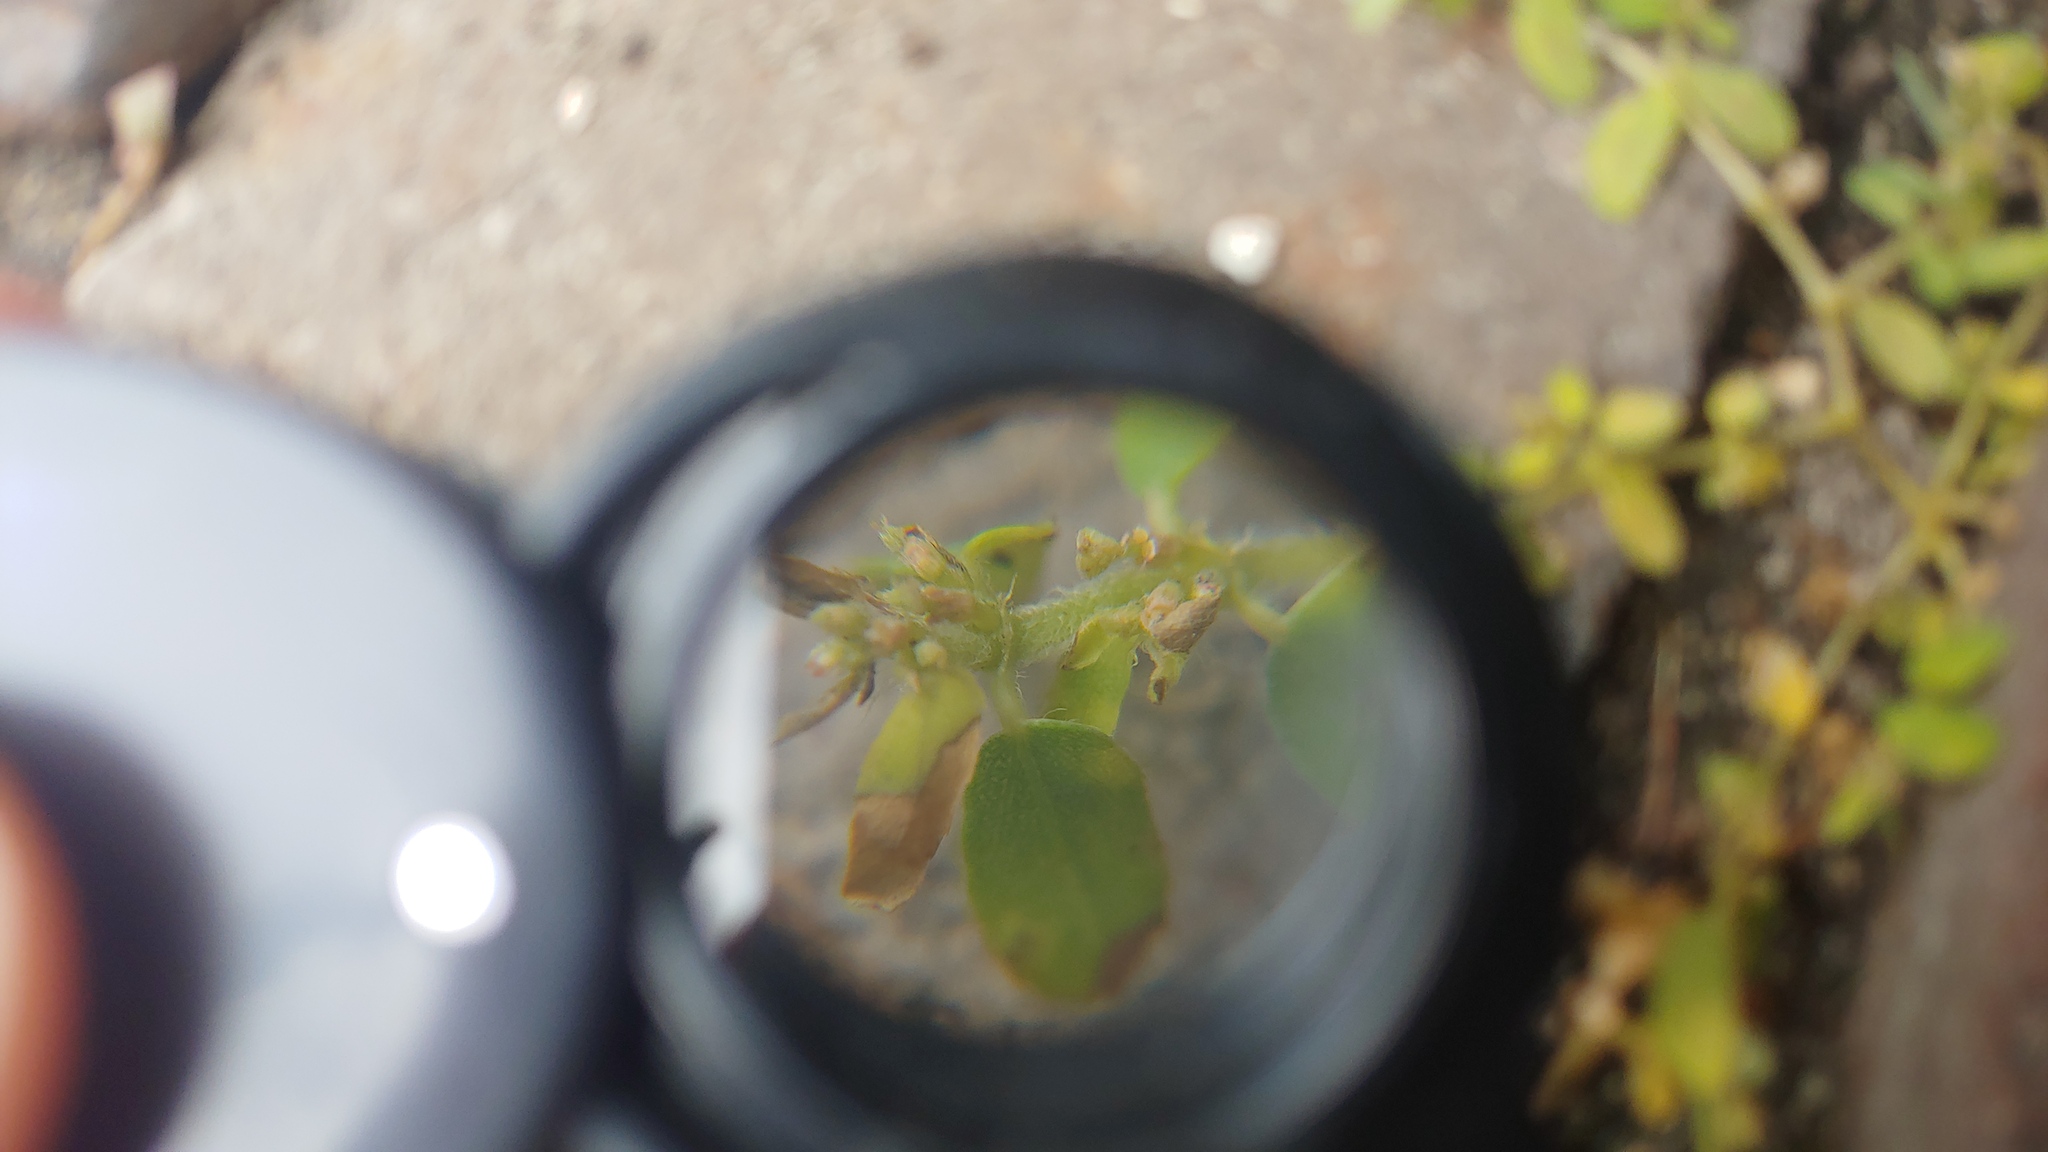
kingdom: Plantae
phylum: Tracheophyta
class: Magnoliopsida
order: Malpighiales
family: Euphorbiaceae
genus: Euphorbia
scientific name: Euphorbia maculata
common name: Spotted spurge
